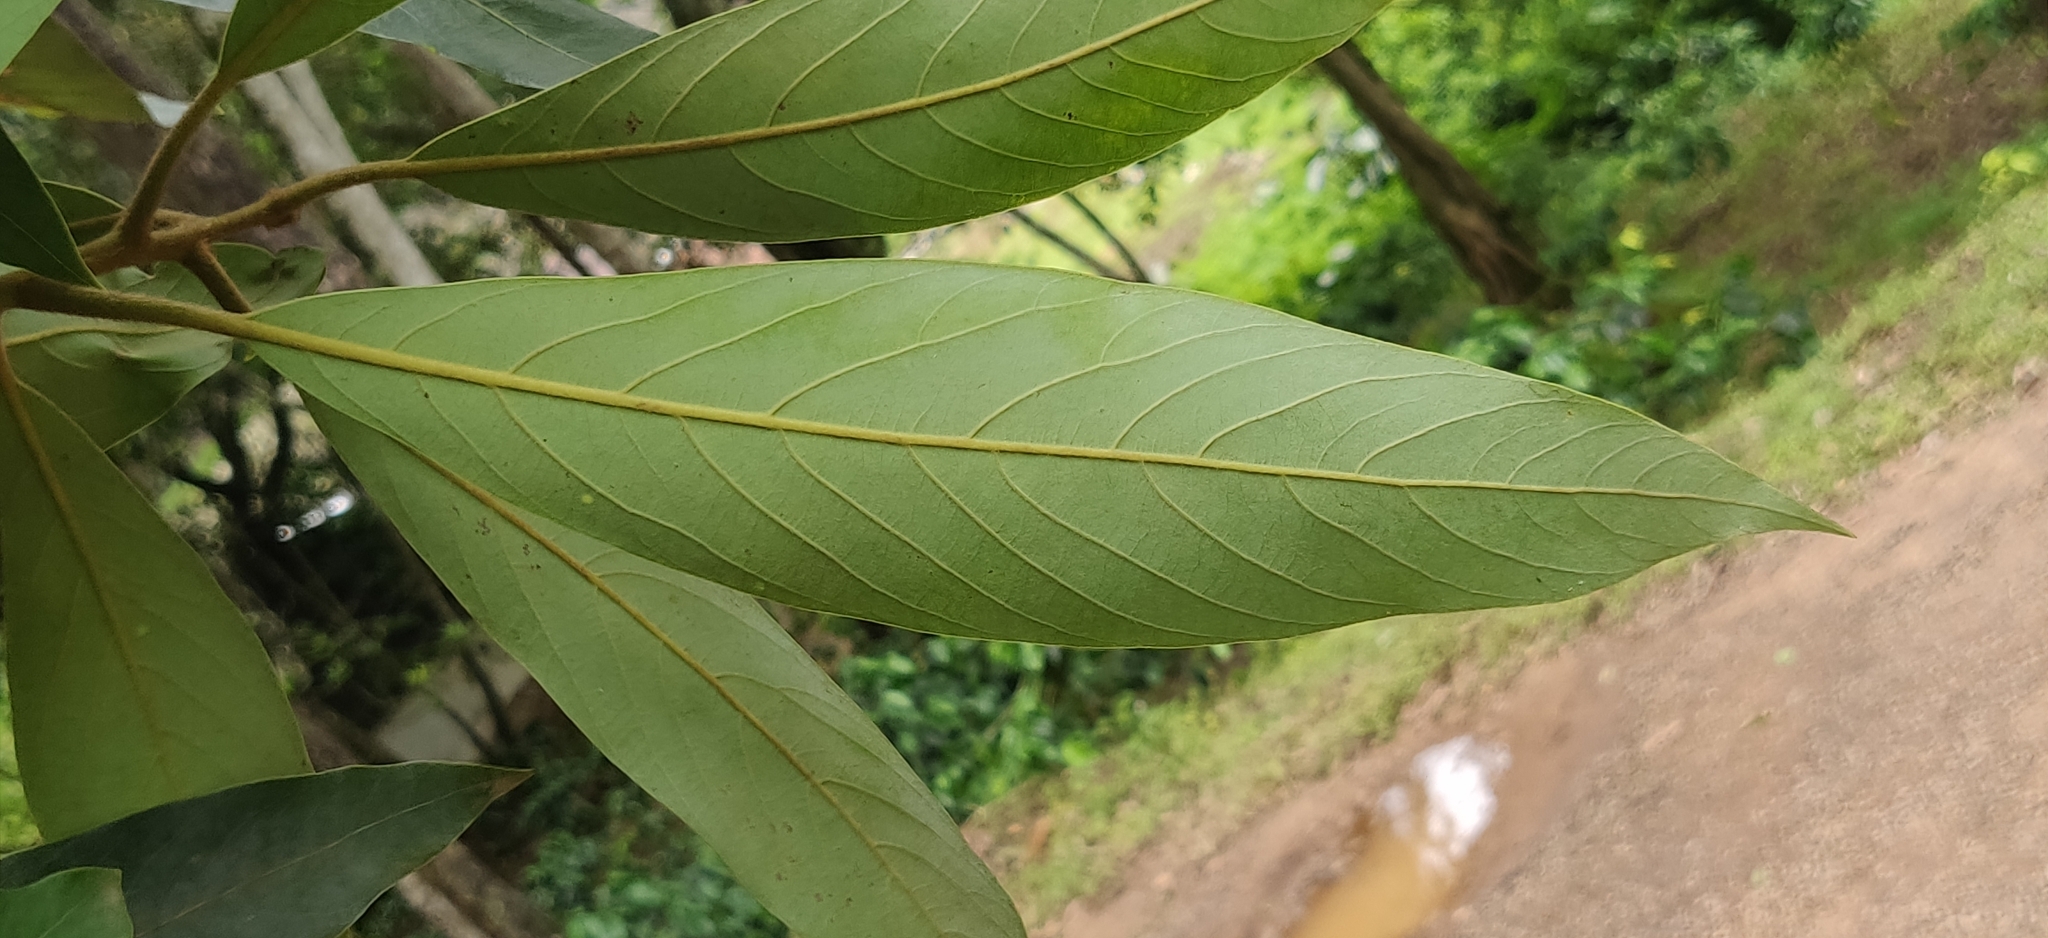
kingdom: Plantae
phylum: Tracheophyta
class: Magnoliopsida
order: Laurales
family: Lauraceae
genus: Actinodaphne
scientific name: Actinodaphne wightiana
